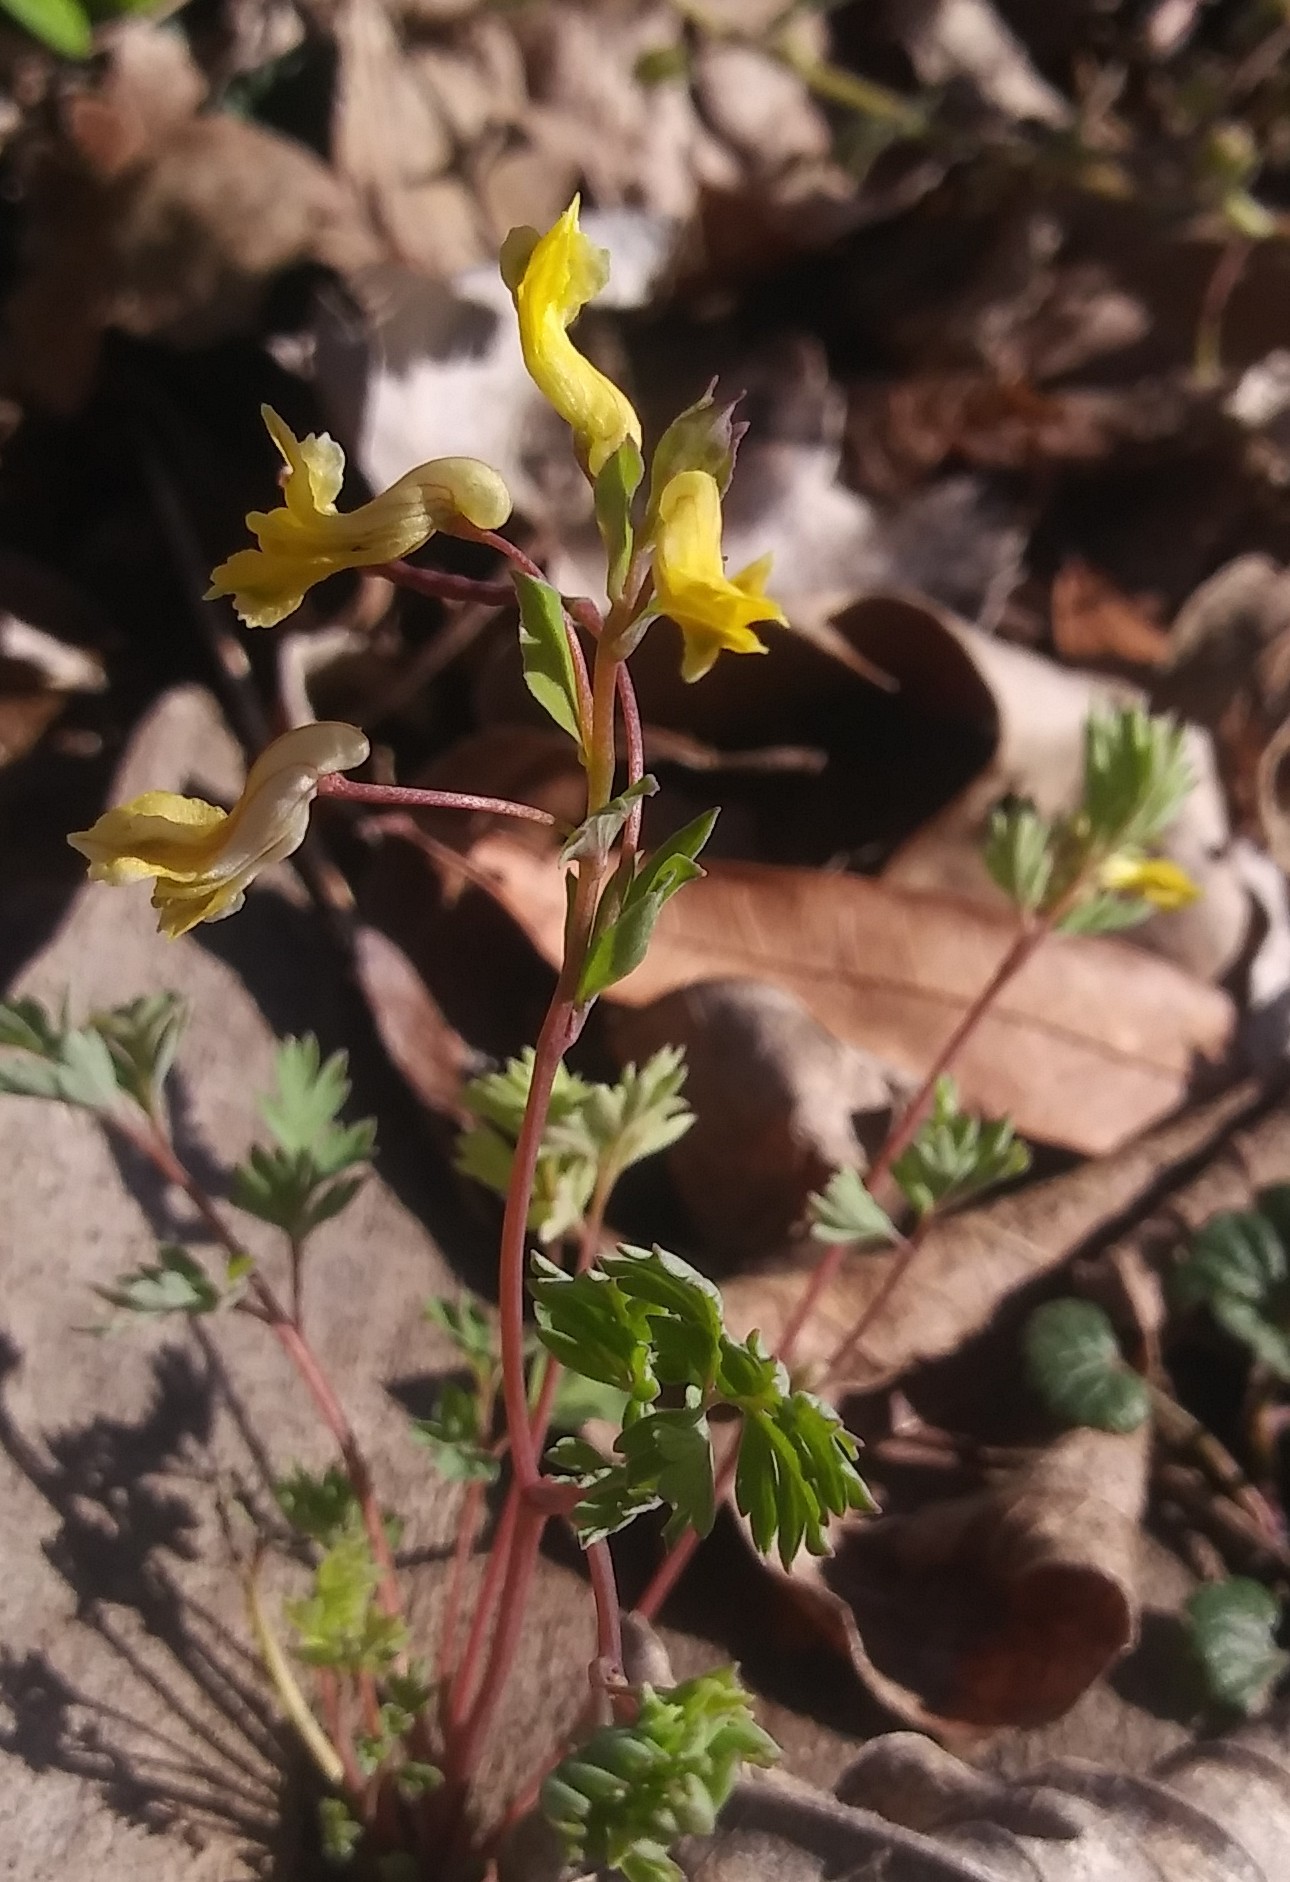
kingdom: Plantae
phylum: Tracheophyta
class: Magnoliopsida
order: Ranunculales
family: Papaveraceae
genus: Corydalis
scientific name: Corydalis flavula
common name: Yellow corydalis
